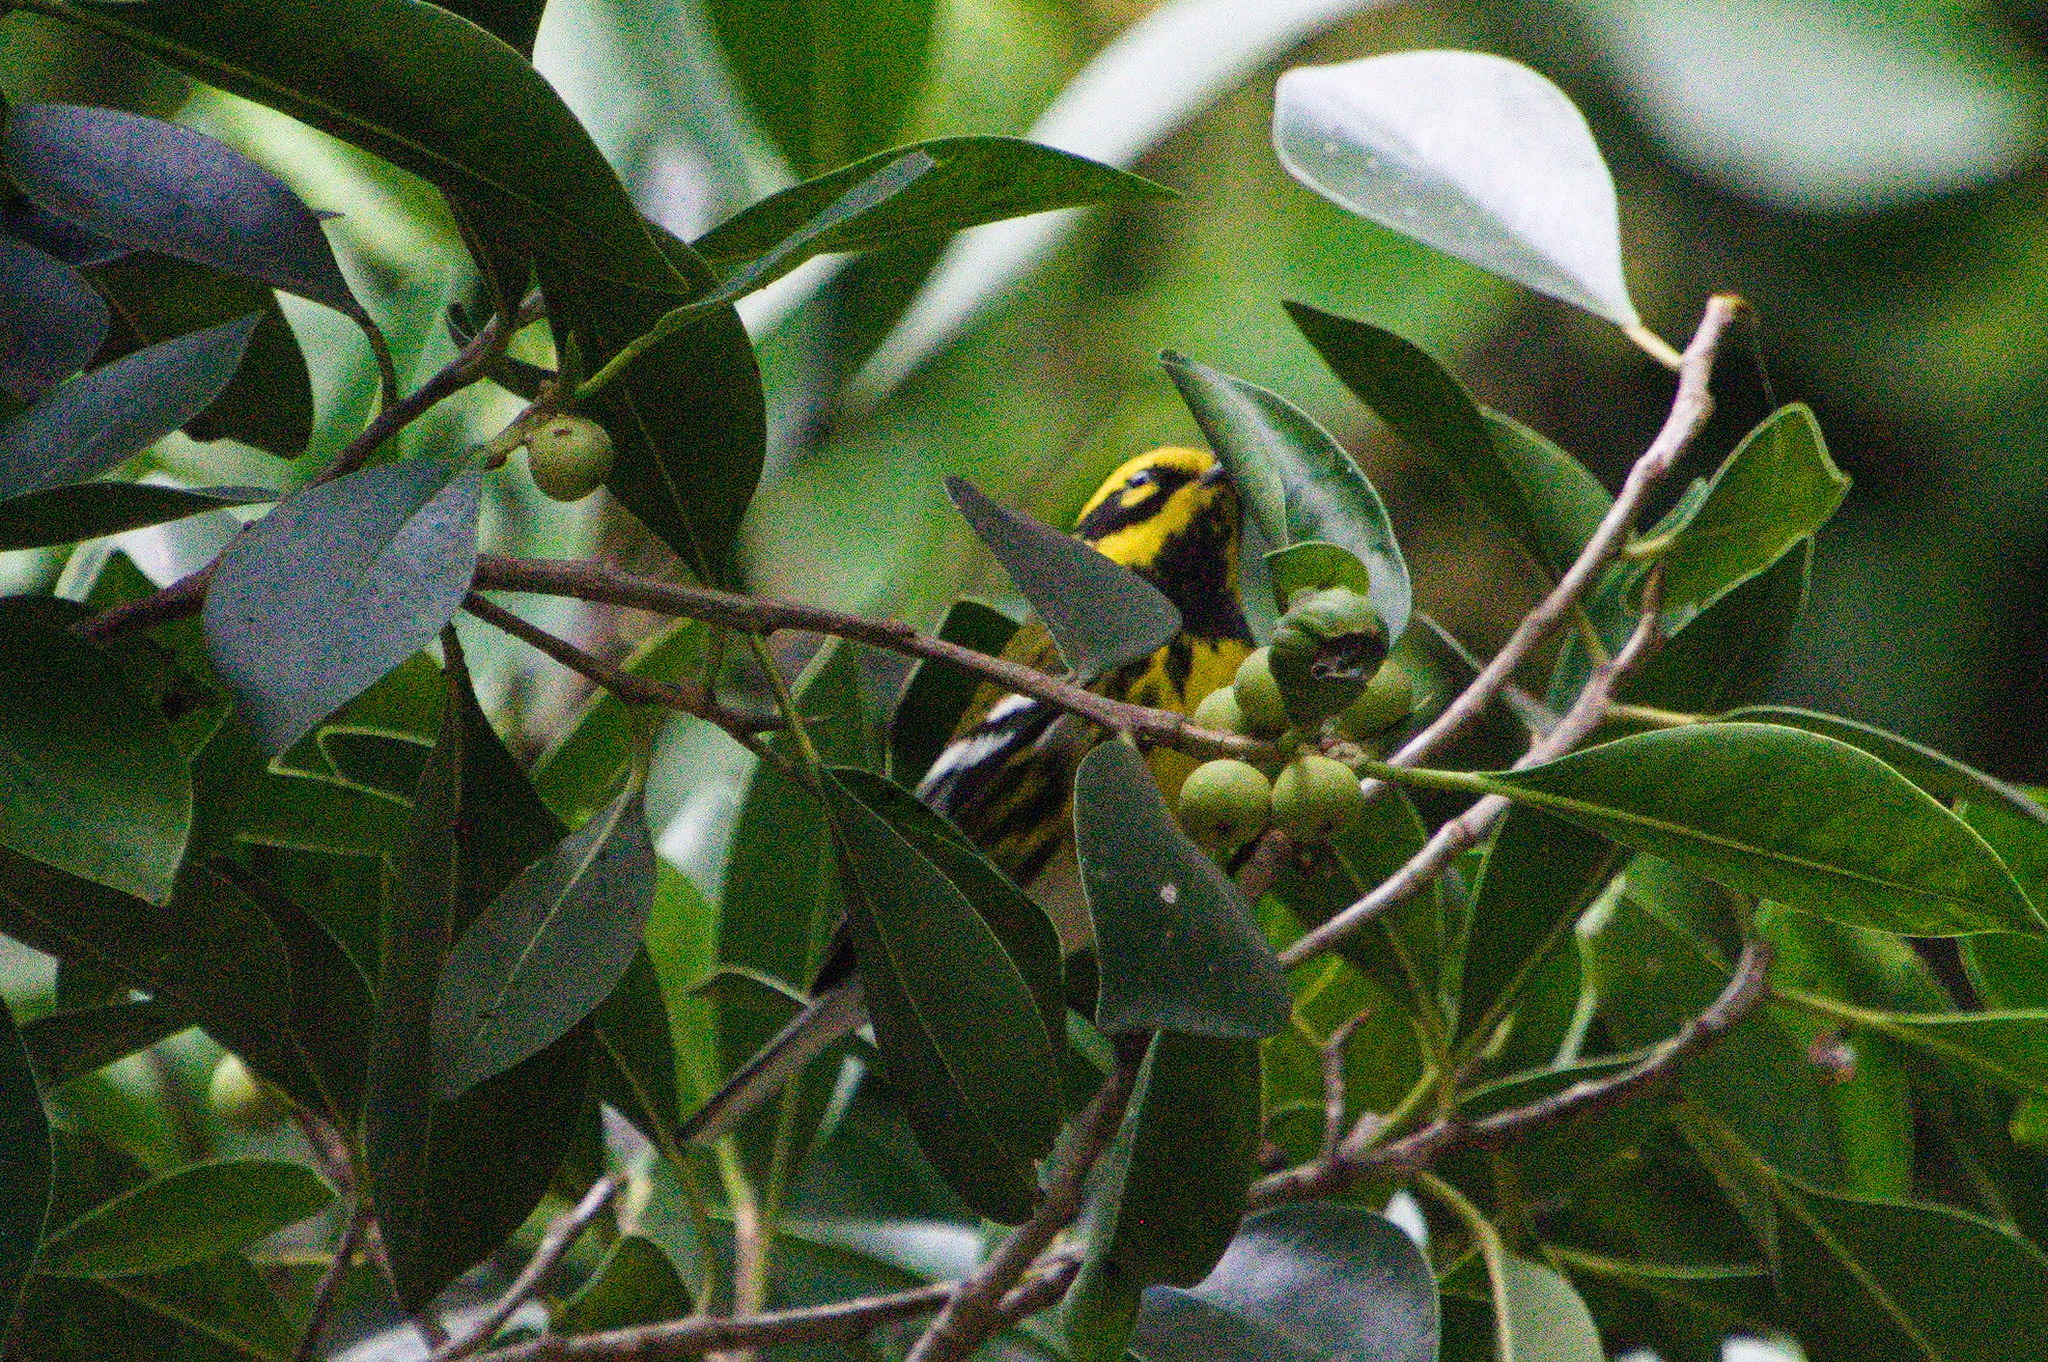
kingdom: Animalia
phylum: Chordata
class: Aves
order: Passeriformes
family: Parulidae
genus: Setophaga
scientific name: Setophaga townsendi
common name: Townsend's warbler
